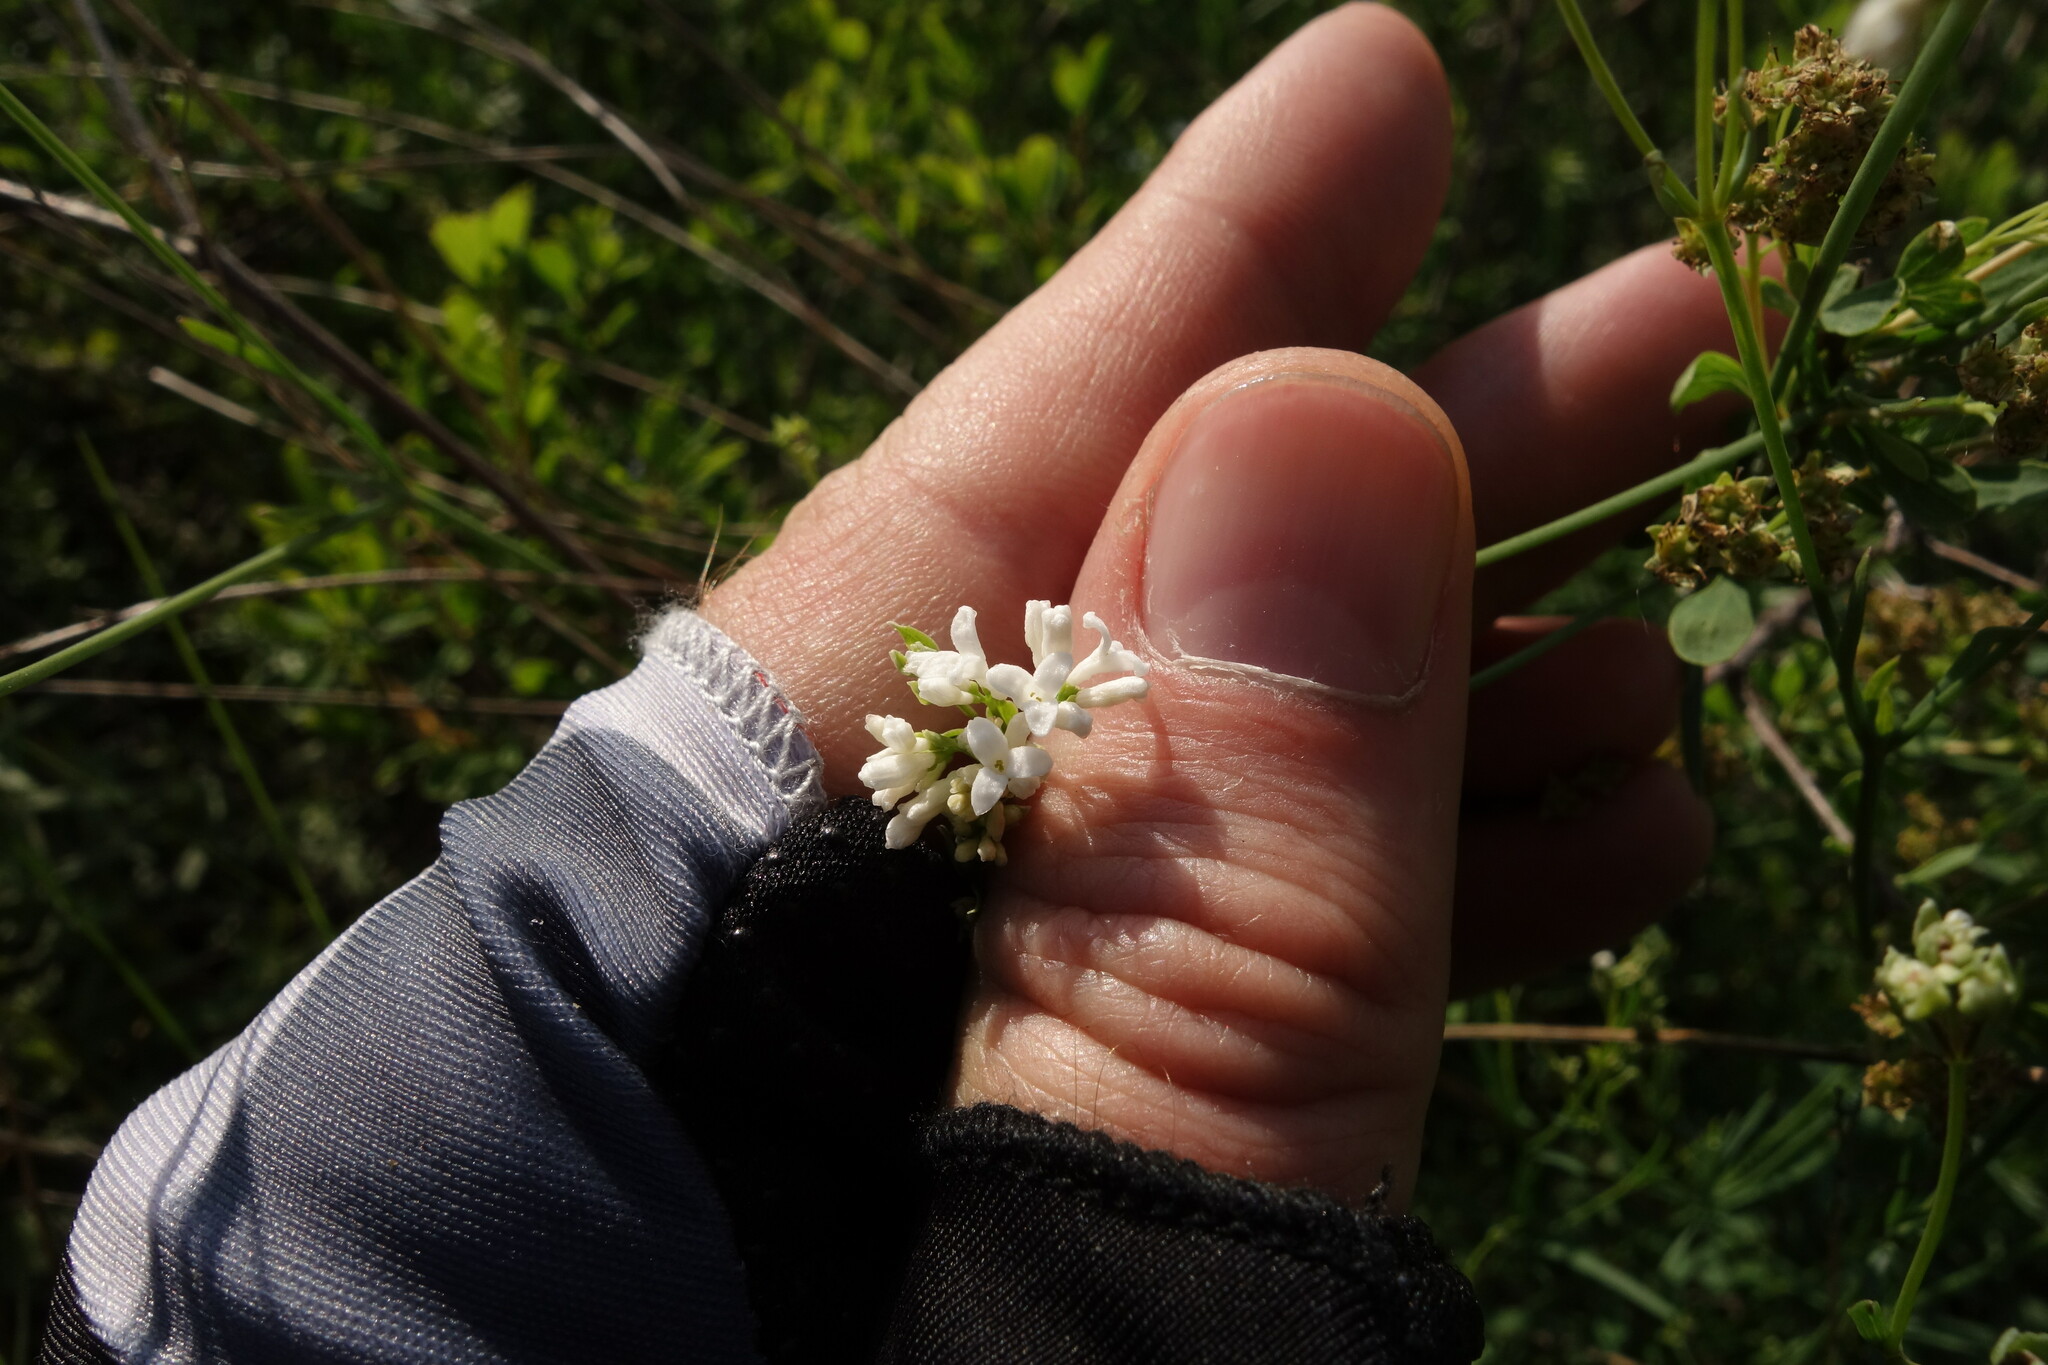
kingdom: Plantae
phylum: Tracheophyta
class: Magnoliopsida
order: Gentianales
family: Rubiaceae
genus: Asperula
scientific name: Asperula tinctoria
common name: Dyer's woodruff
